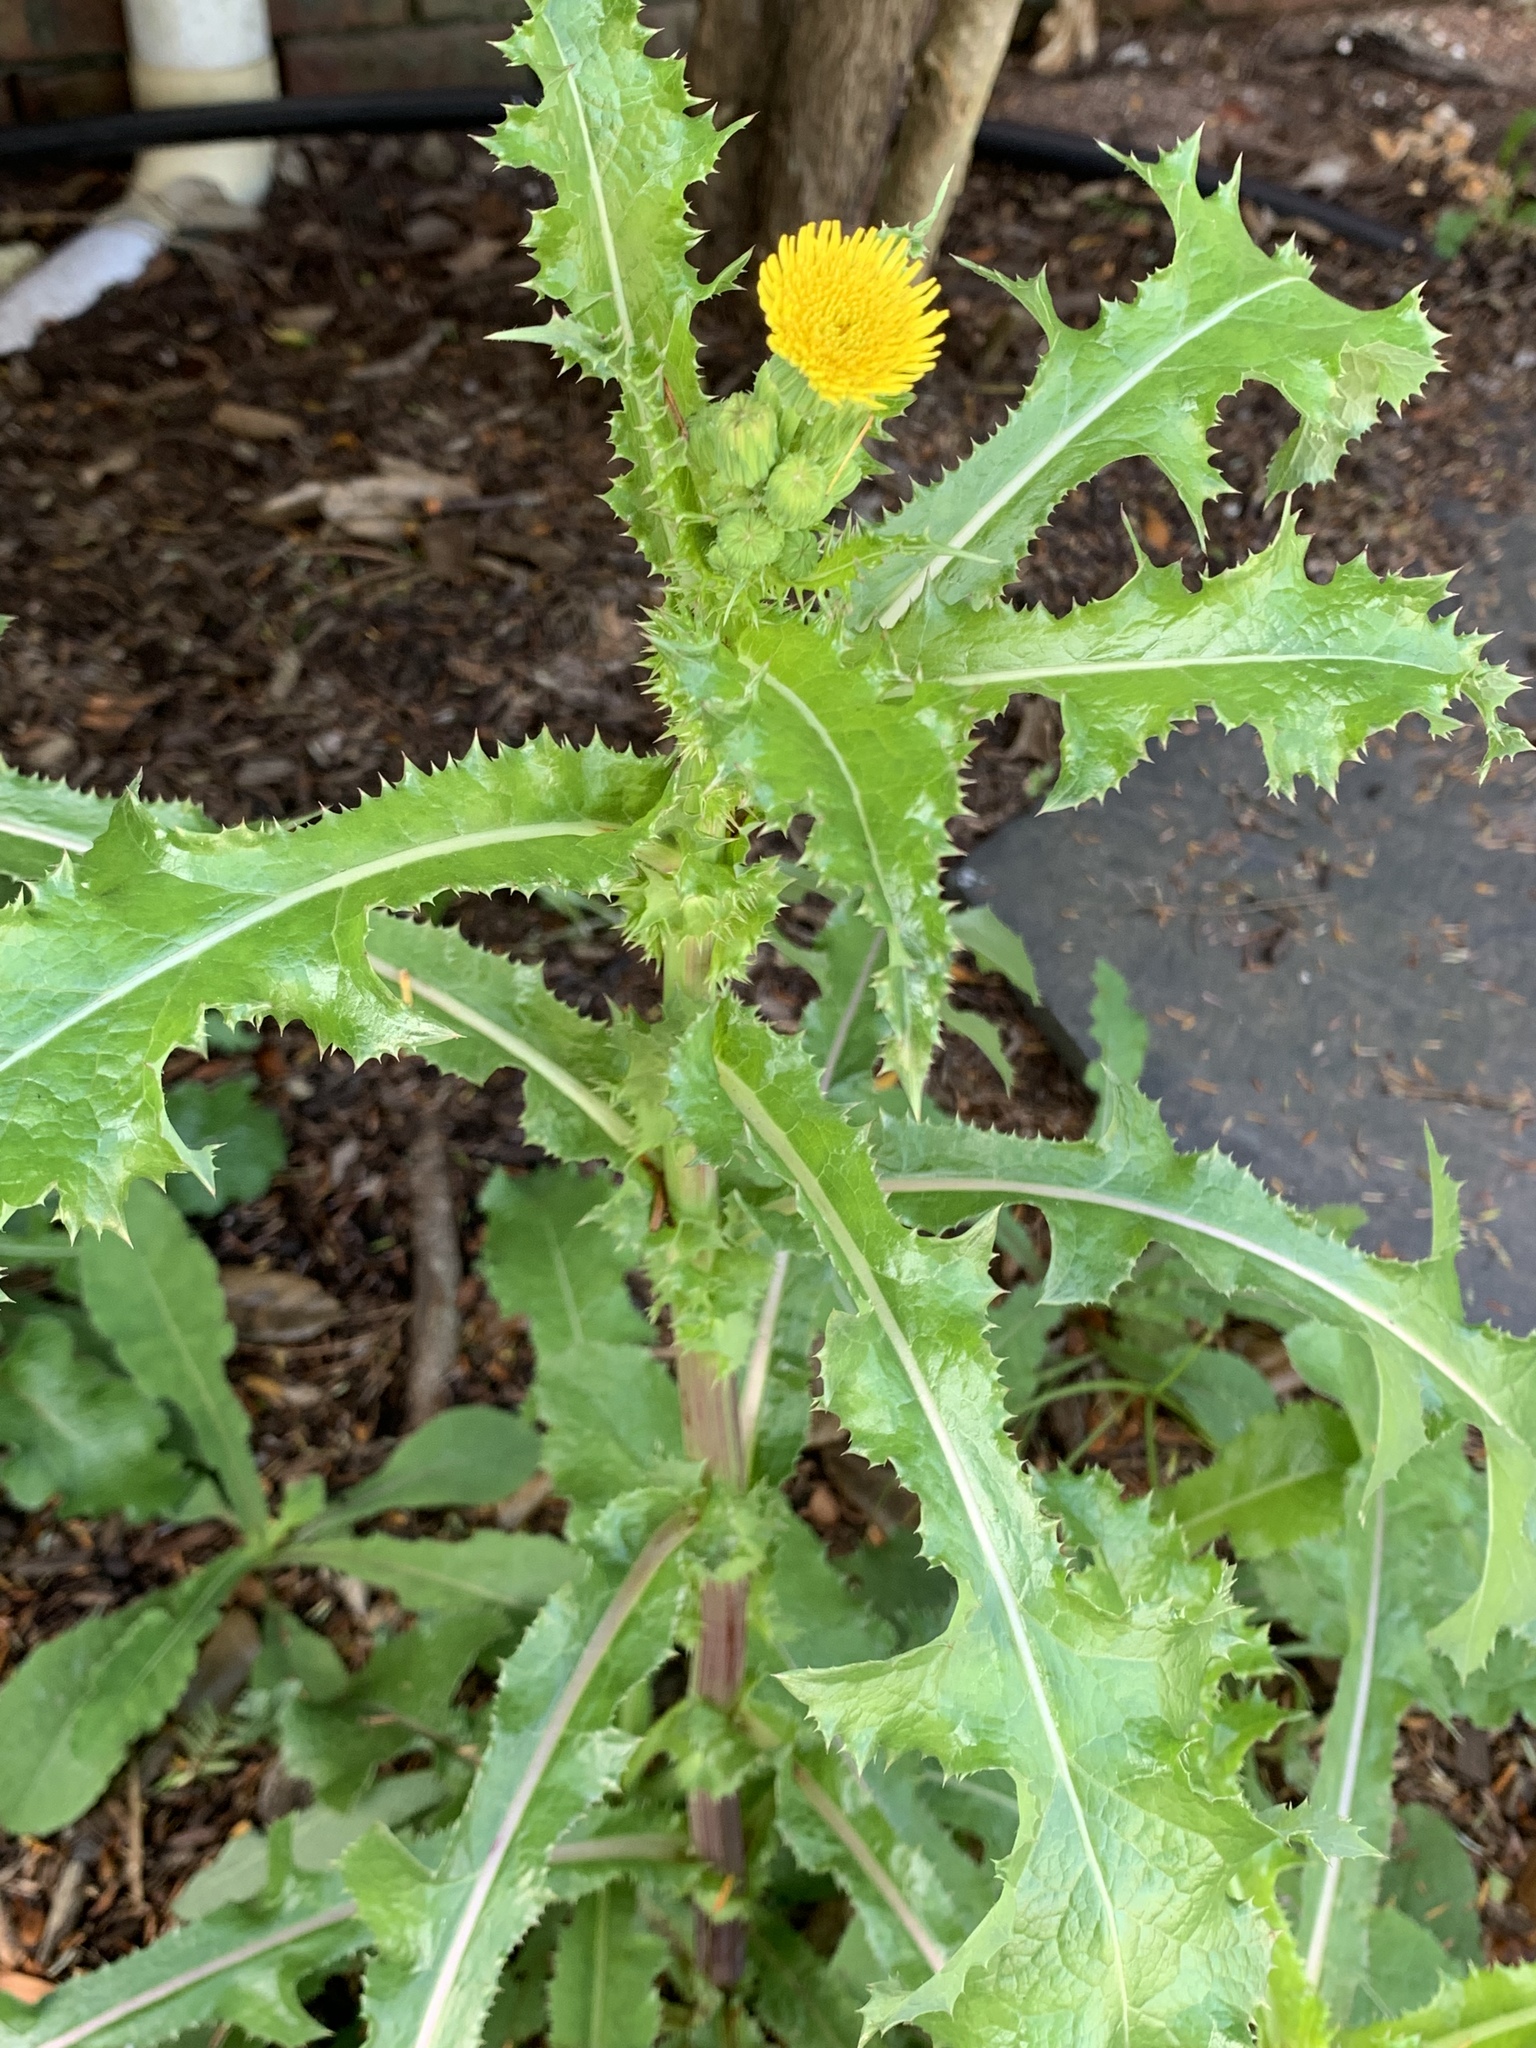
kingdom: Plantae
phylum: Tracheophyta
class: Magnoliopsida
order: Asterales
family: Asteraceae
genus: Sonchus
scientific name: Sonchus asper
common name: Prickly sow-thistle
